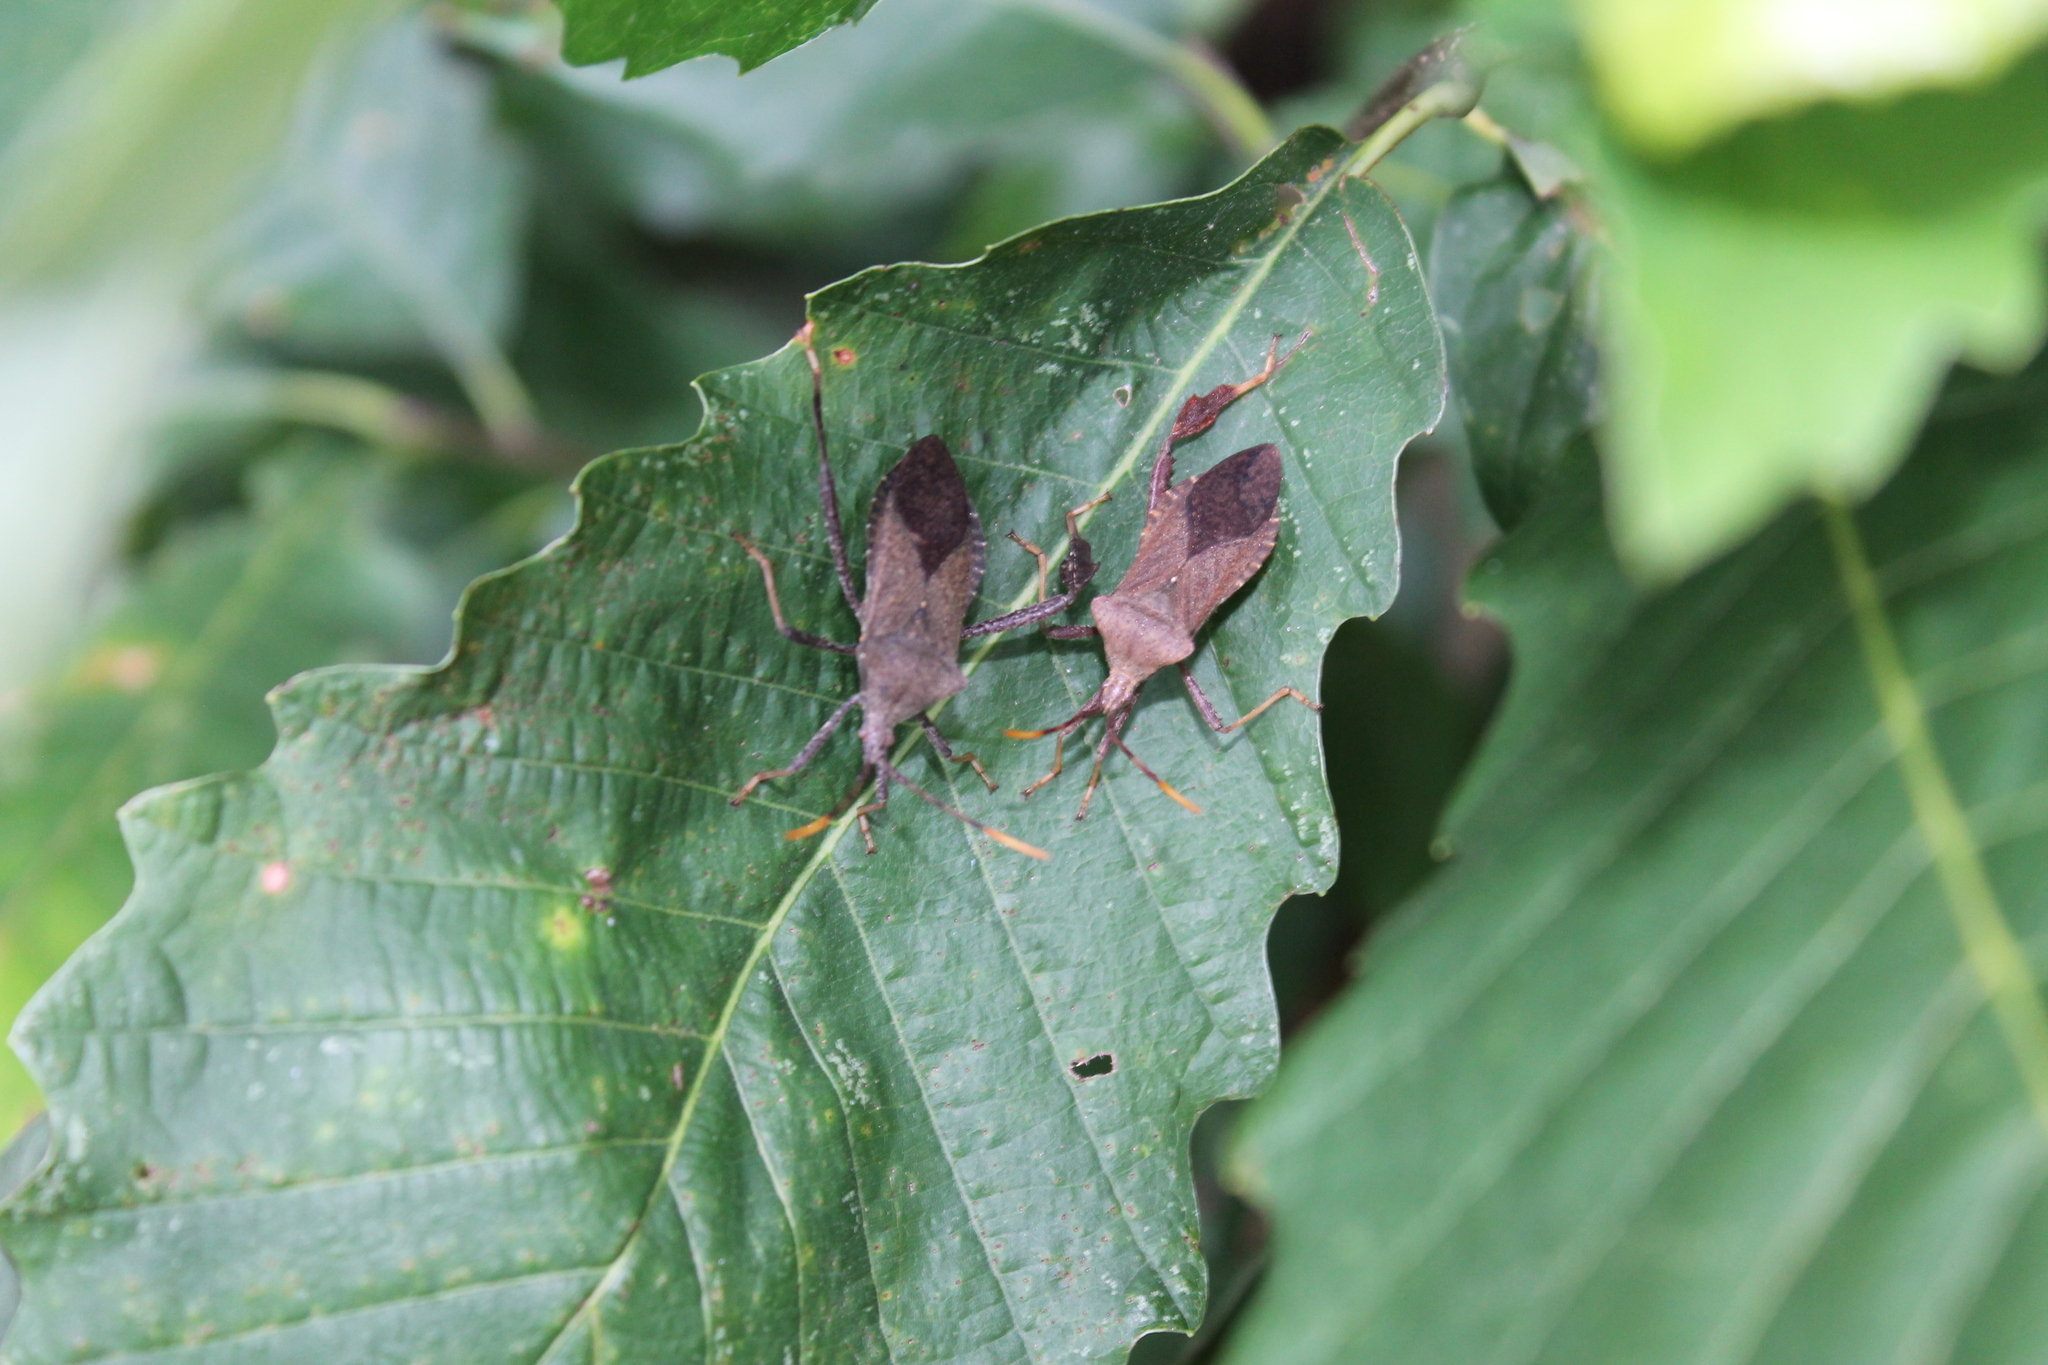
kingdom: Animalia
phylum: Arthropoda
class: Insecta
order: Hemiptera
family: Coreidae
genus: Acanthocephala
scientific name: Acanthocephala terminalis
